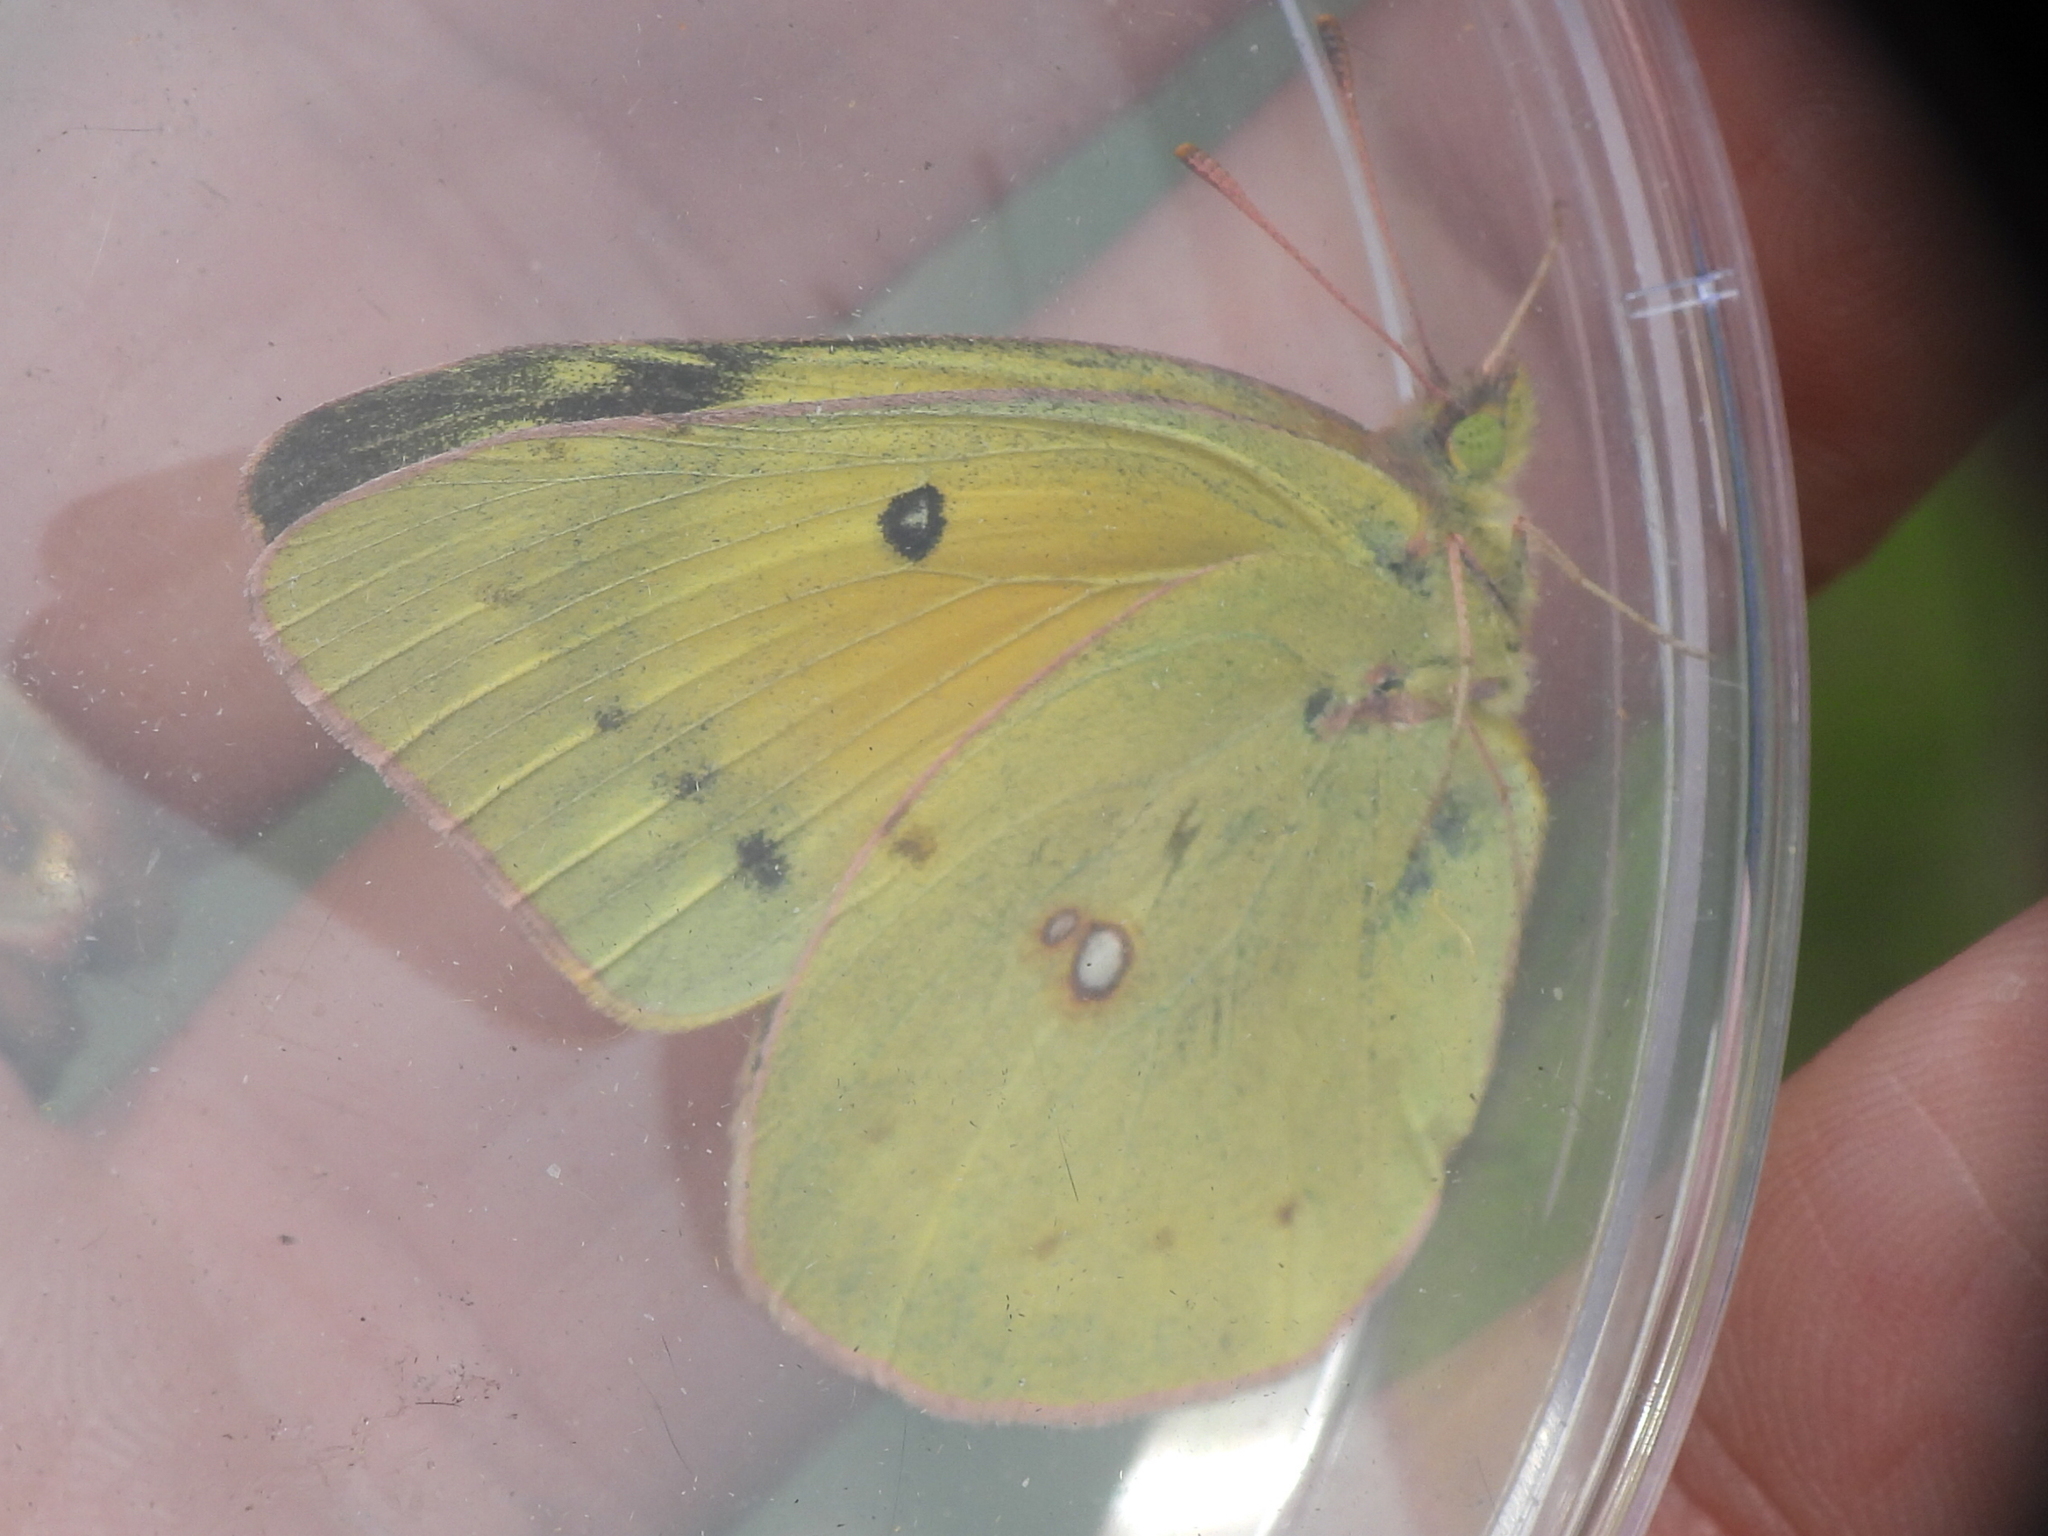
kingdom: Animalia
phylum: Arthropoda
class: Insecta
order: Lepidoptera
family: Pieridae
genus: Colias
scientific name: Colias eurytheme
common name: Alfalfa butterfly
